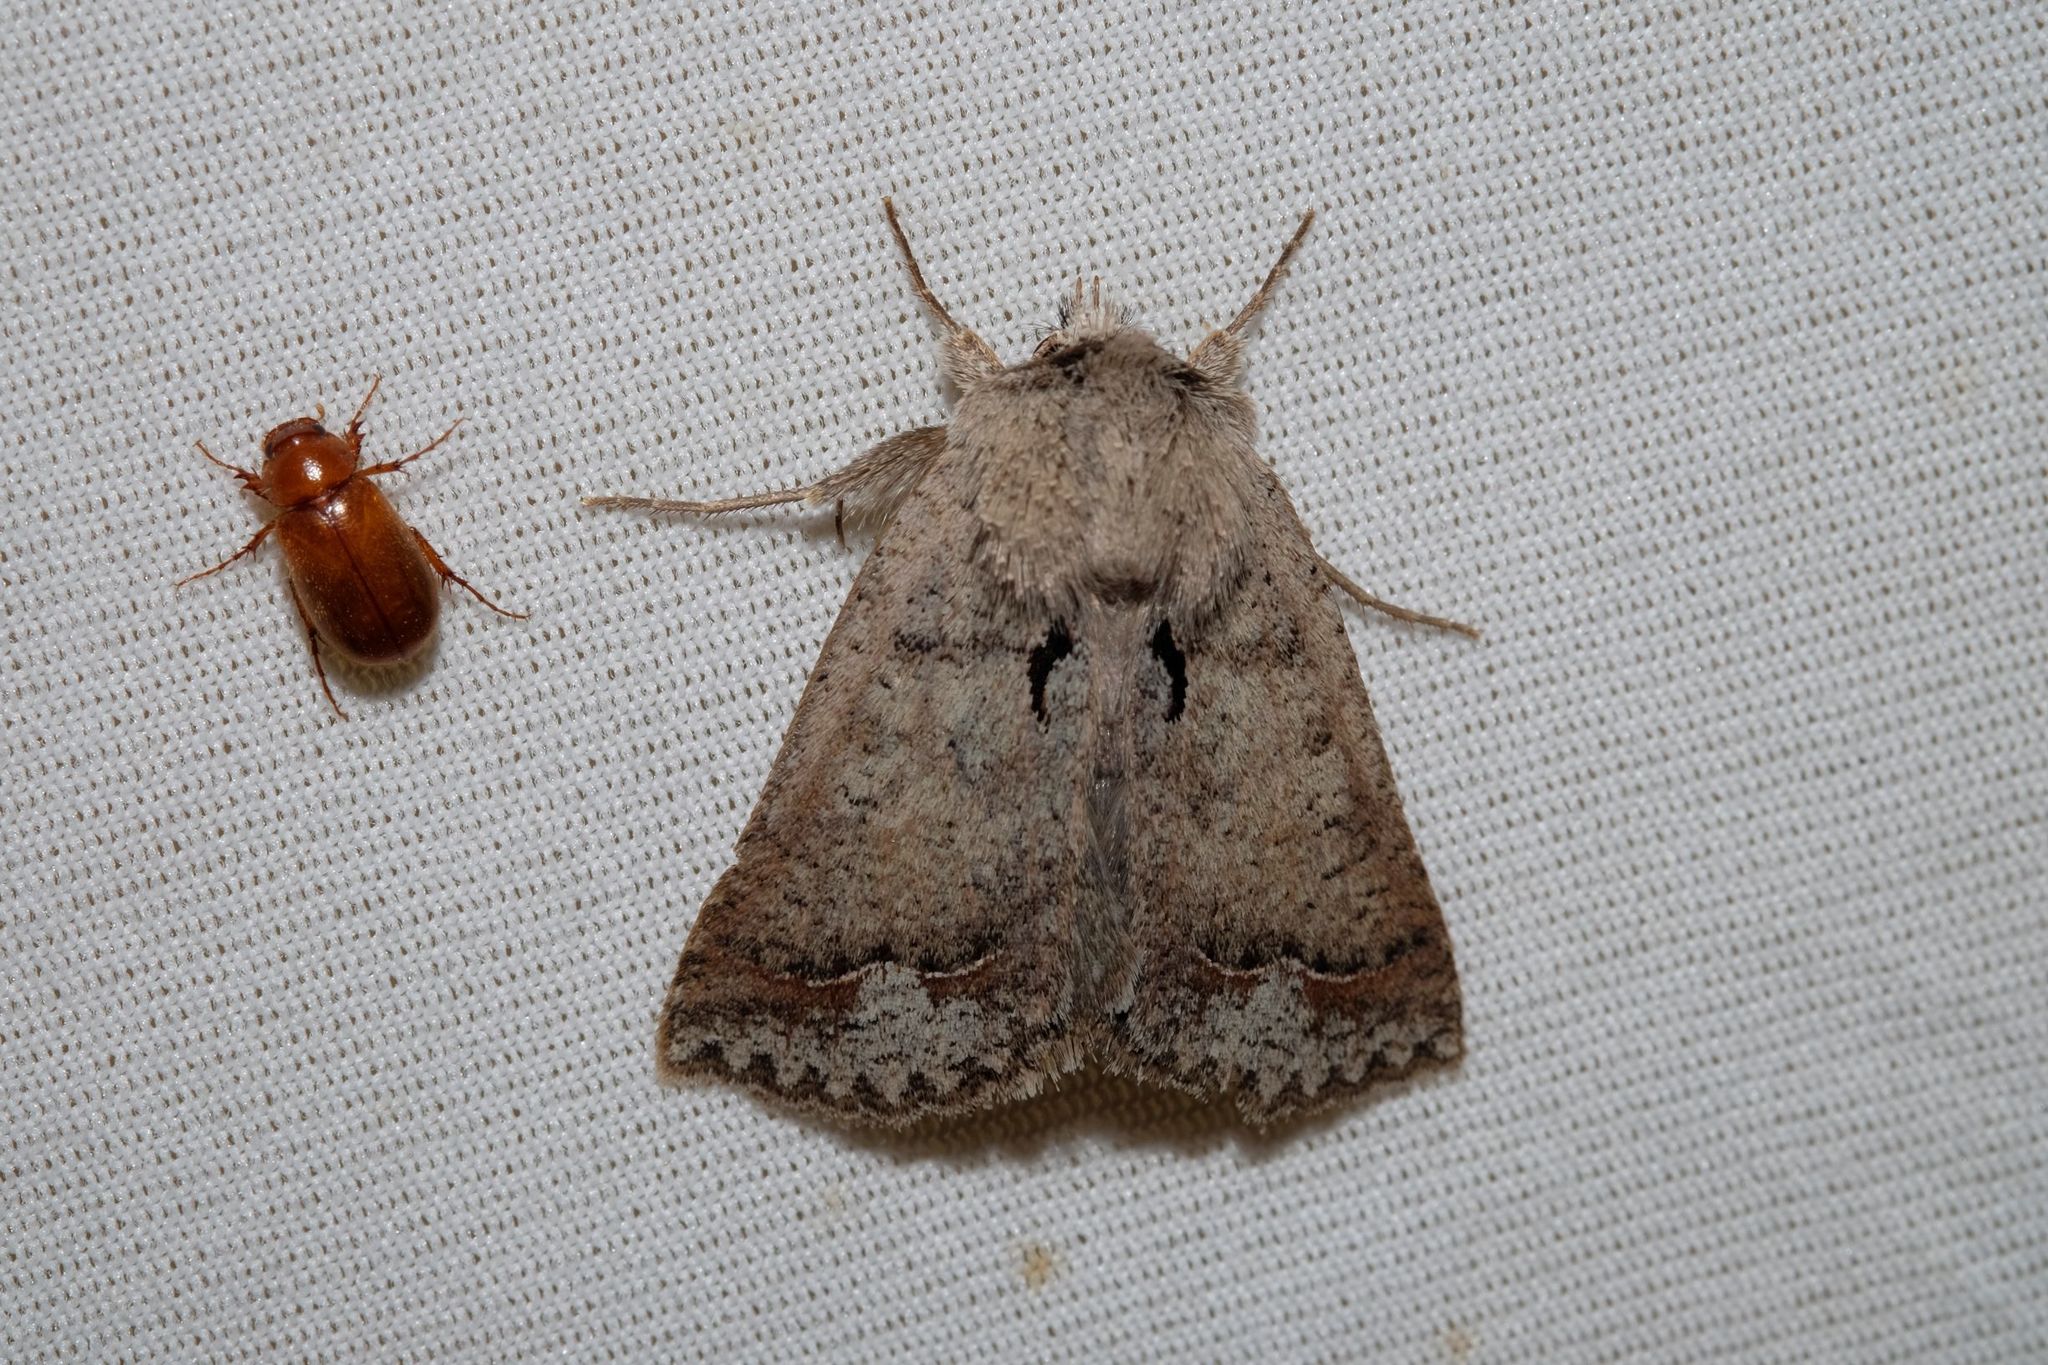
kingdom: Animalia
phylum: Arthropoda
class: Insecta
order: Lepidoptera
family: Erebidae
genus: Pantydia
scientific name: Pantydia diemeni
